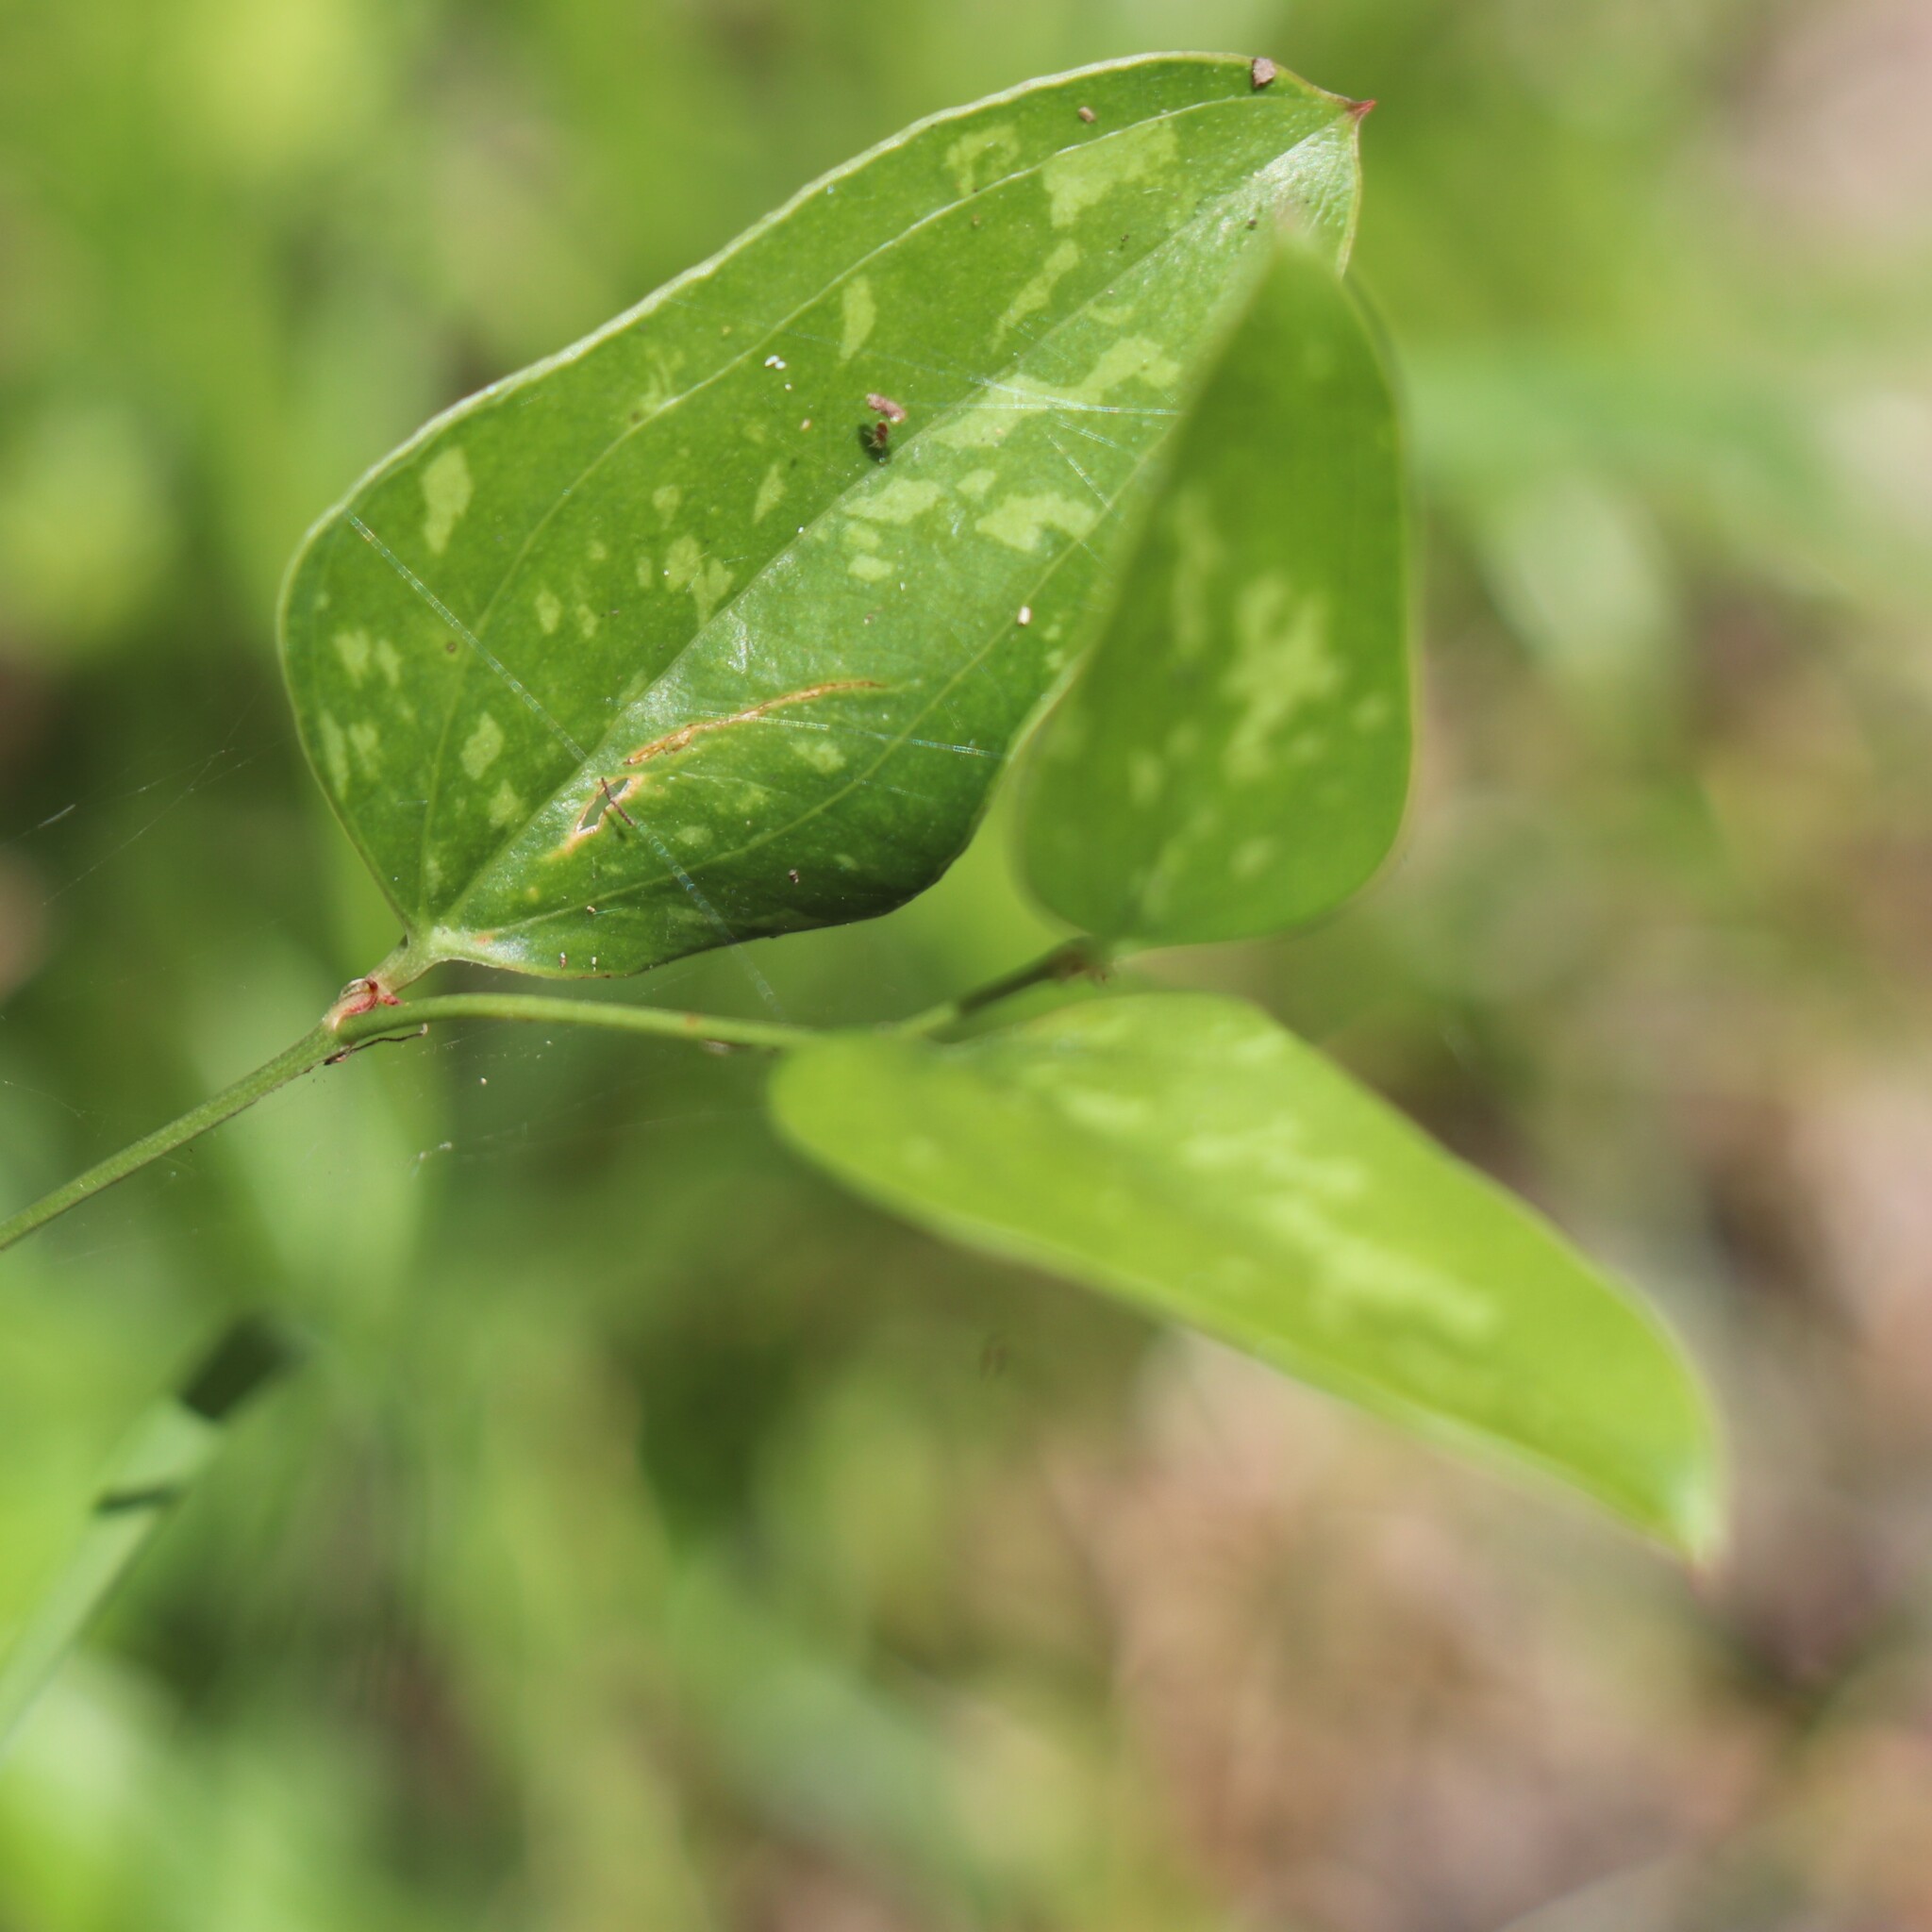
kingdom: Plantae
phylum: Tracheophyta
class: Liliopsida
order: Liliales
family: Smilacaceae
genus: Smilax
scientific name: Smilax auriculata
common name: Wild bamboo
